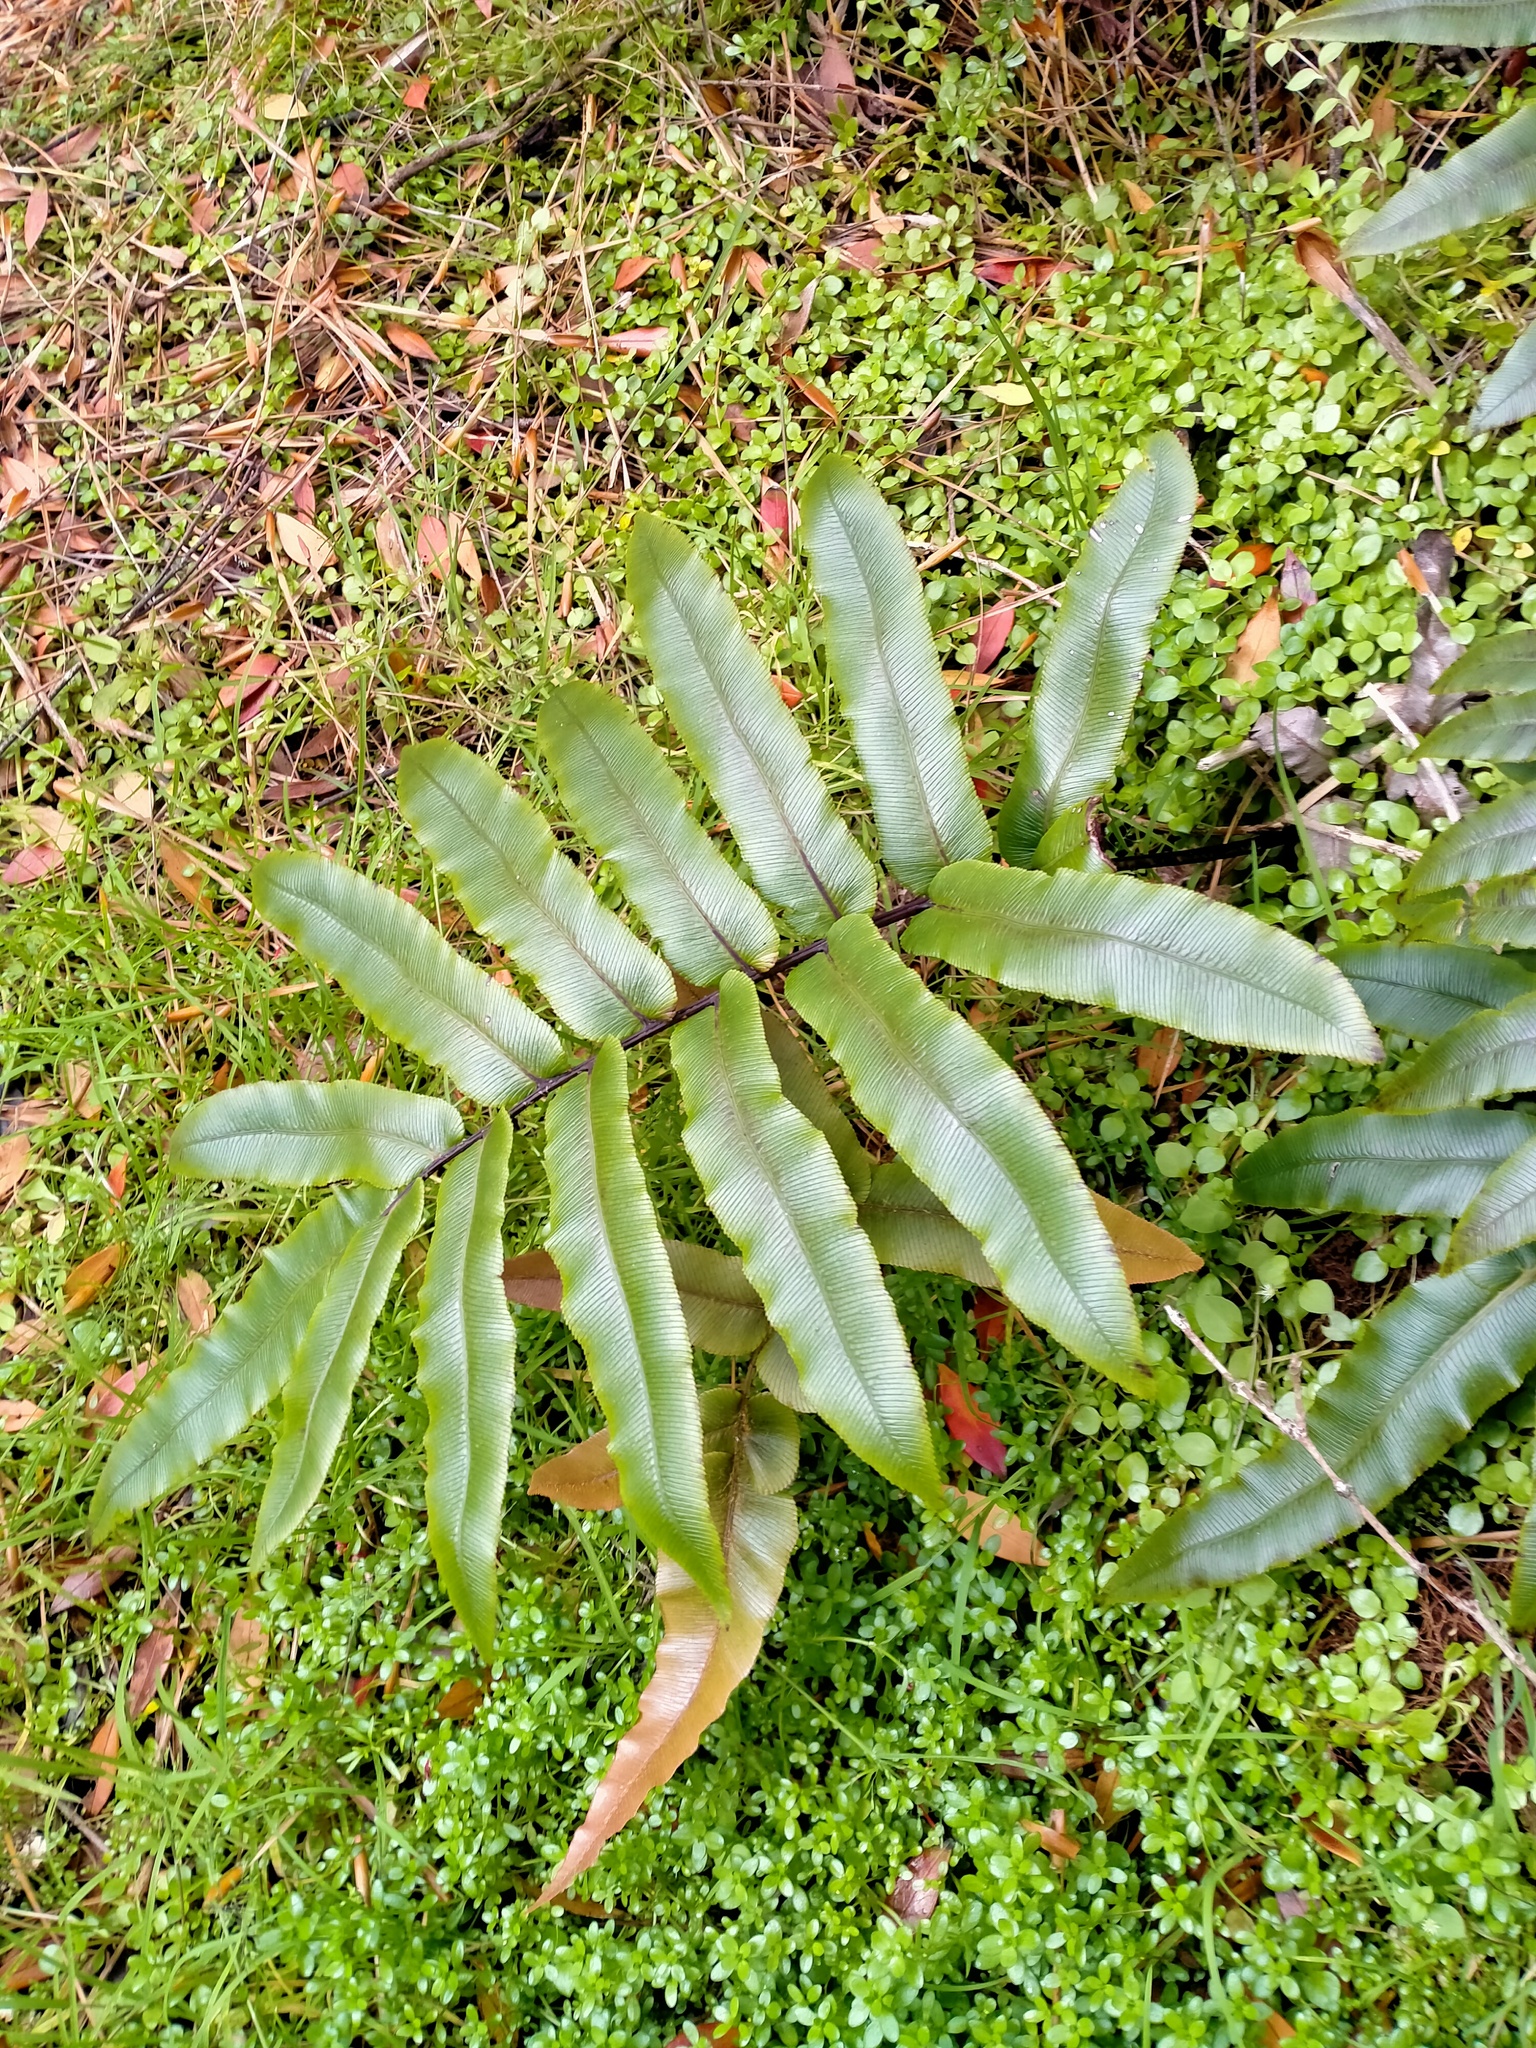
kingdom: Plantae
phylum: Tracheophyta
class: Polypodiopsida
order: Polypodiales
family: Blechnaceae
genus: Parablechnum
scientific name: Parablechnum procerum
